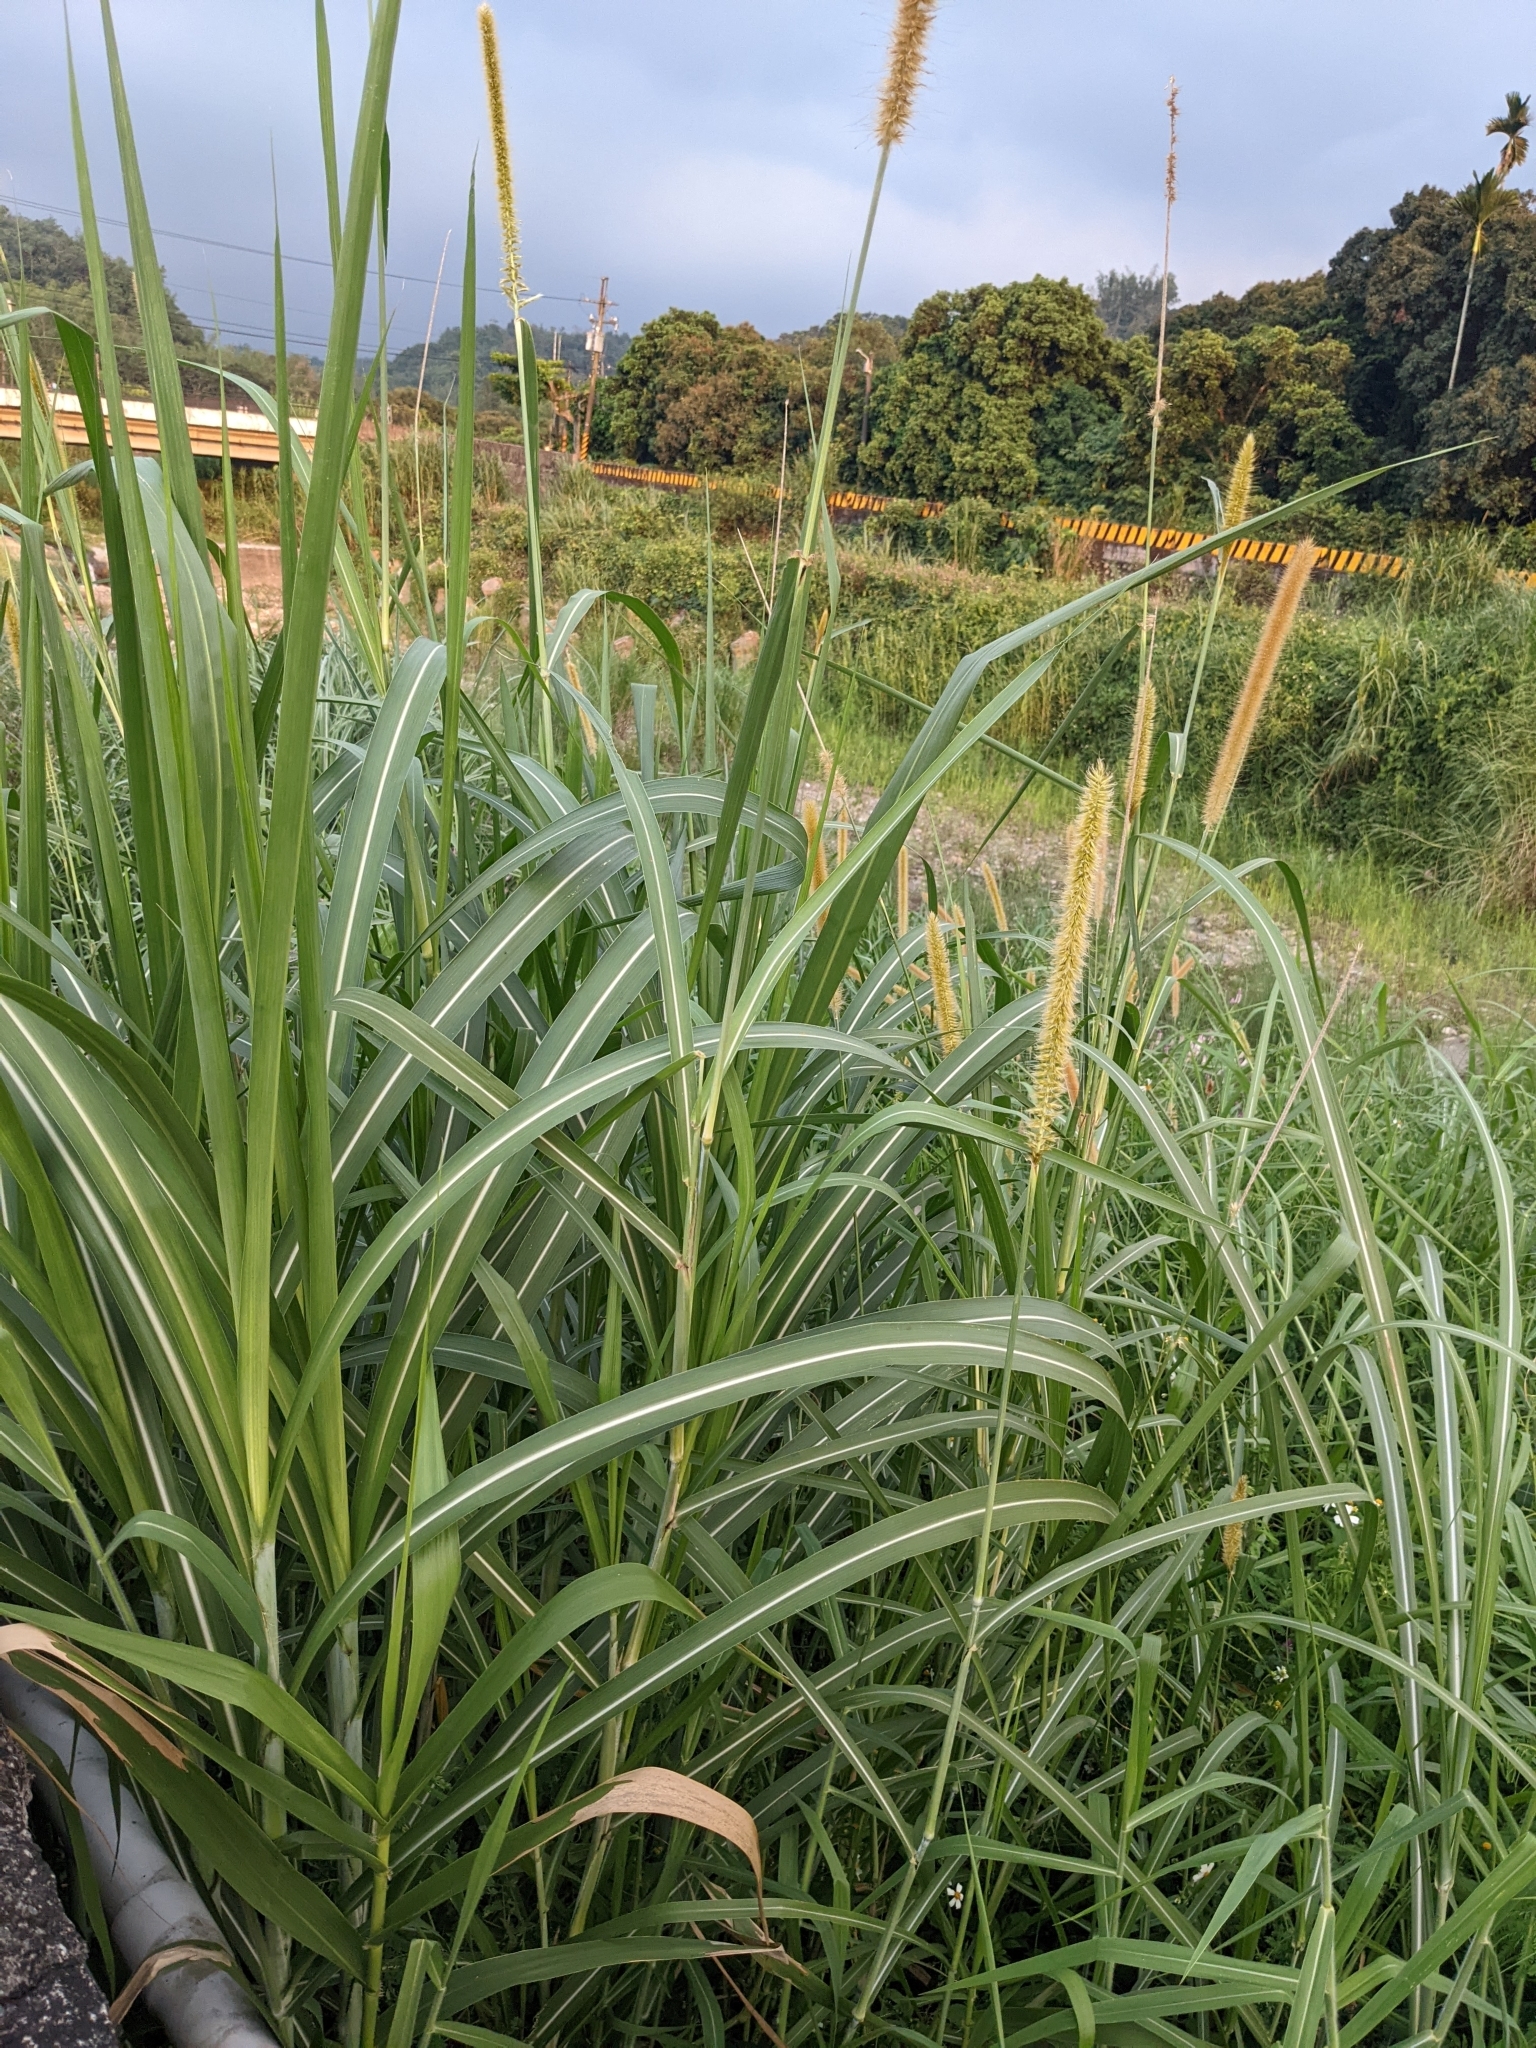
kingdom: Plantae
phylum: Tracheophyta
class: Liliopsida
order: Poales
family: Poaceae
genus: Cenchrus
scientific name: Cenchrus purpureus
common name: Elephant grass
